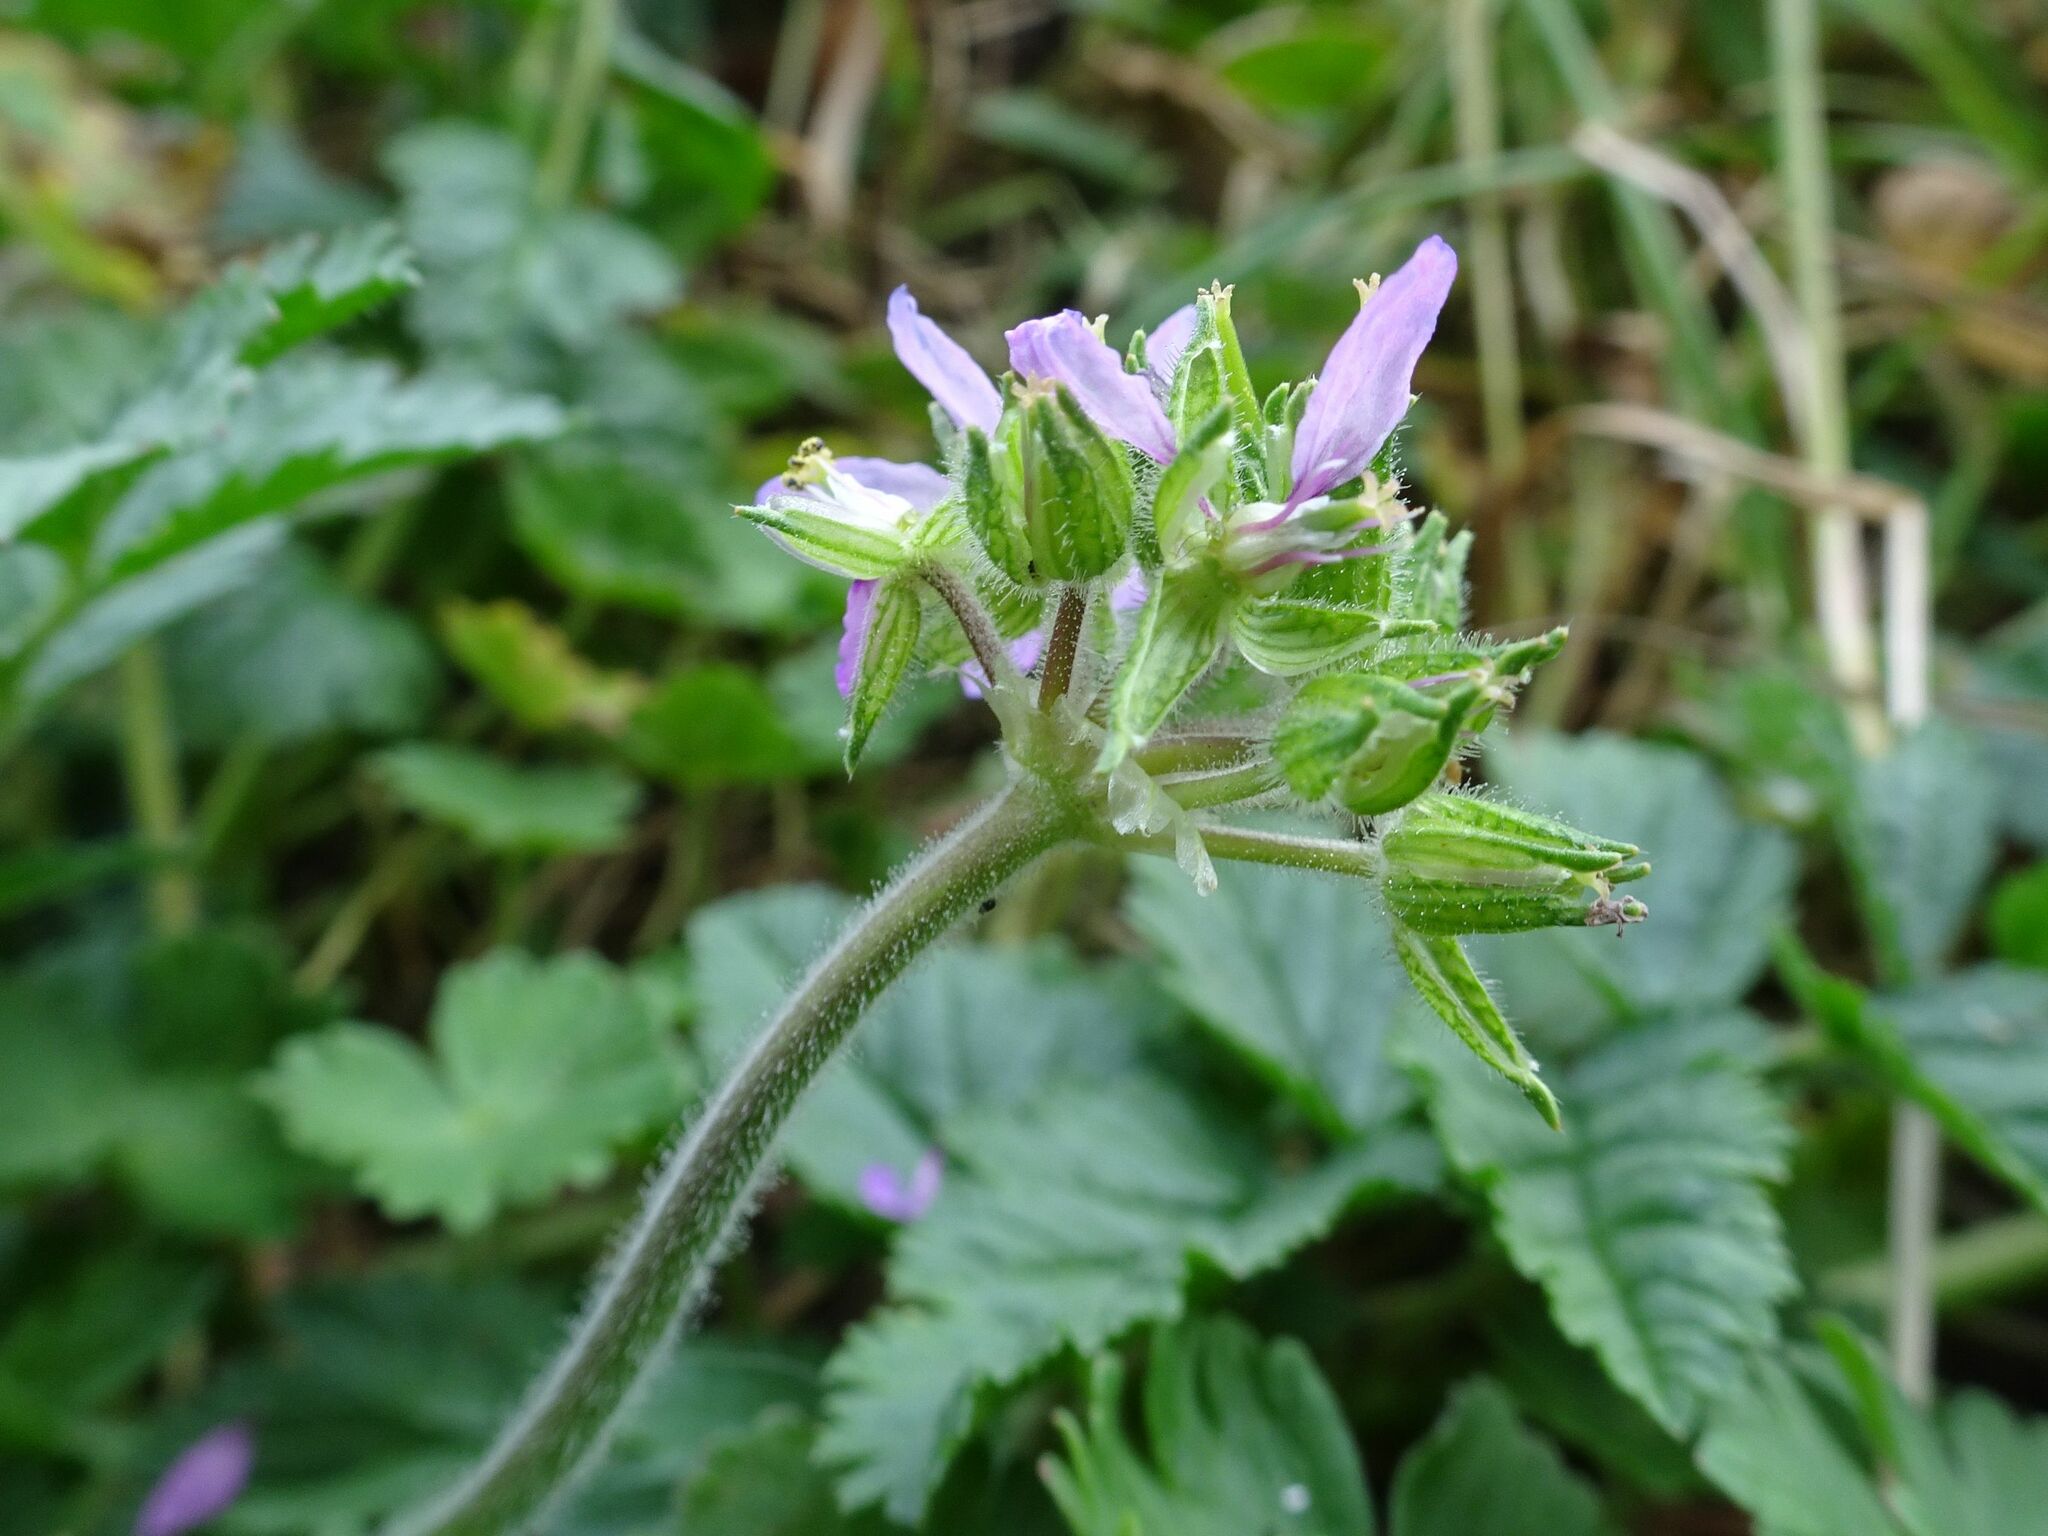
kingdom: Plantae
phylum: Tracheophyta
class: Magnoliopsida
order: Geraniales
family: Geraniaceae
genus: Erodium
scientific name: Erodium moschatum
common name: Musk stork's-bill
